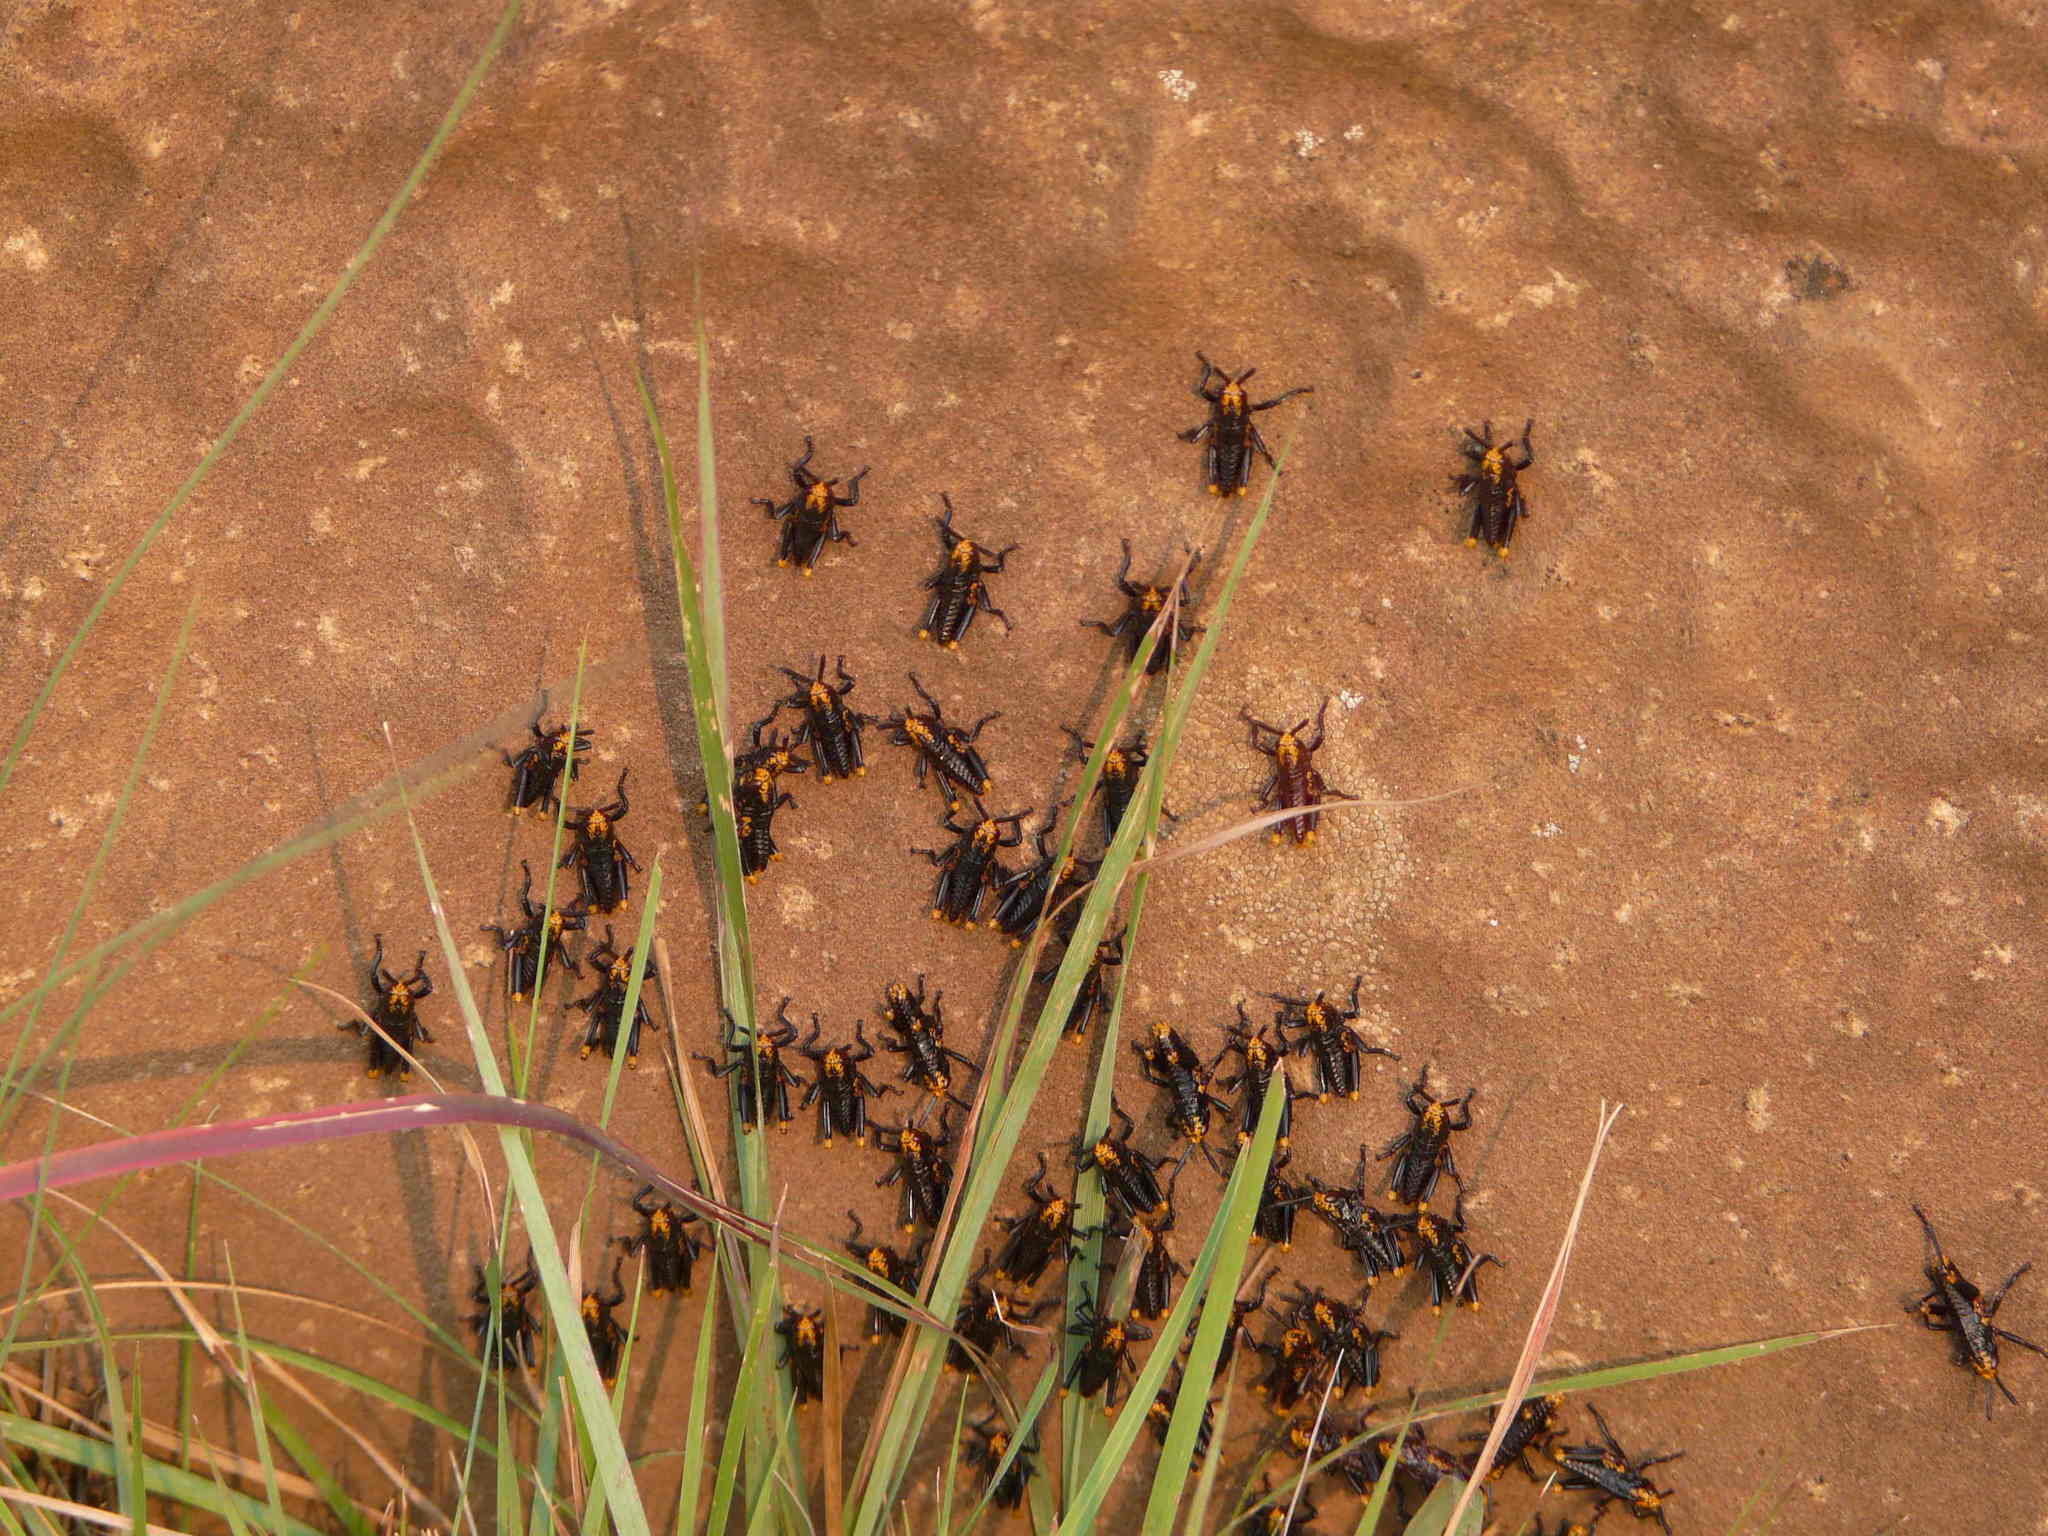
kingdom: Animalia
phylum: Arthropoda
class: Insecta
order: Orthoptera
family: Pyrgomorphidae
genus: Dictyophorus
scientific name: Dictyophorus spumans
